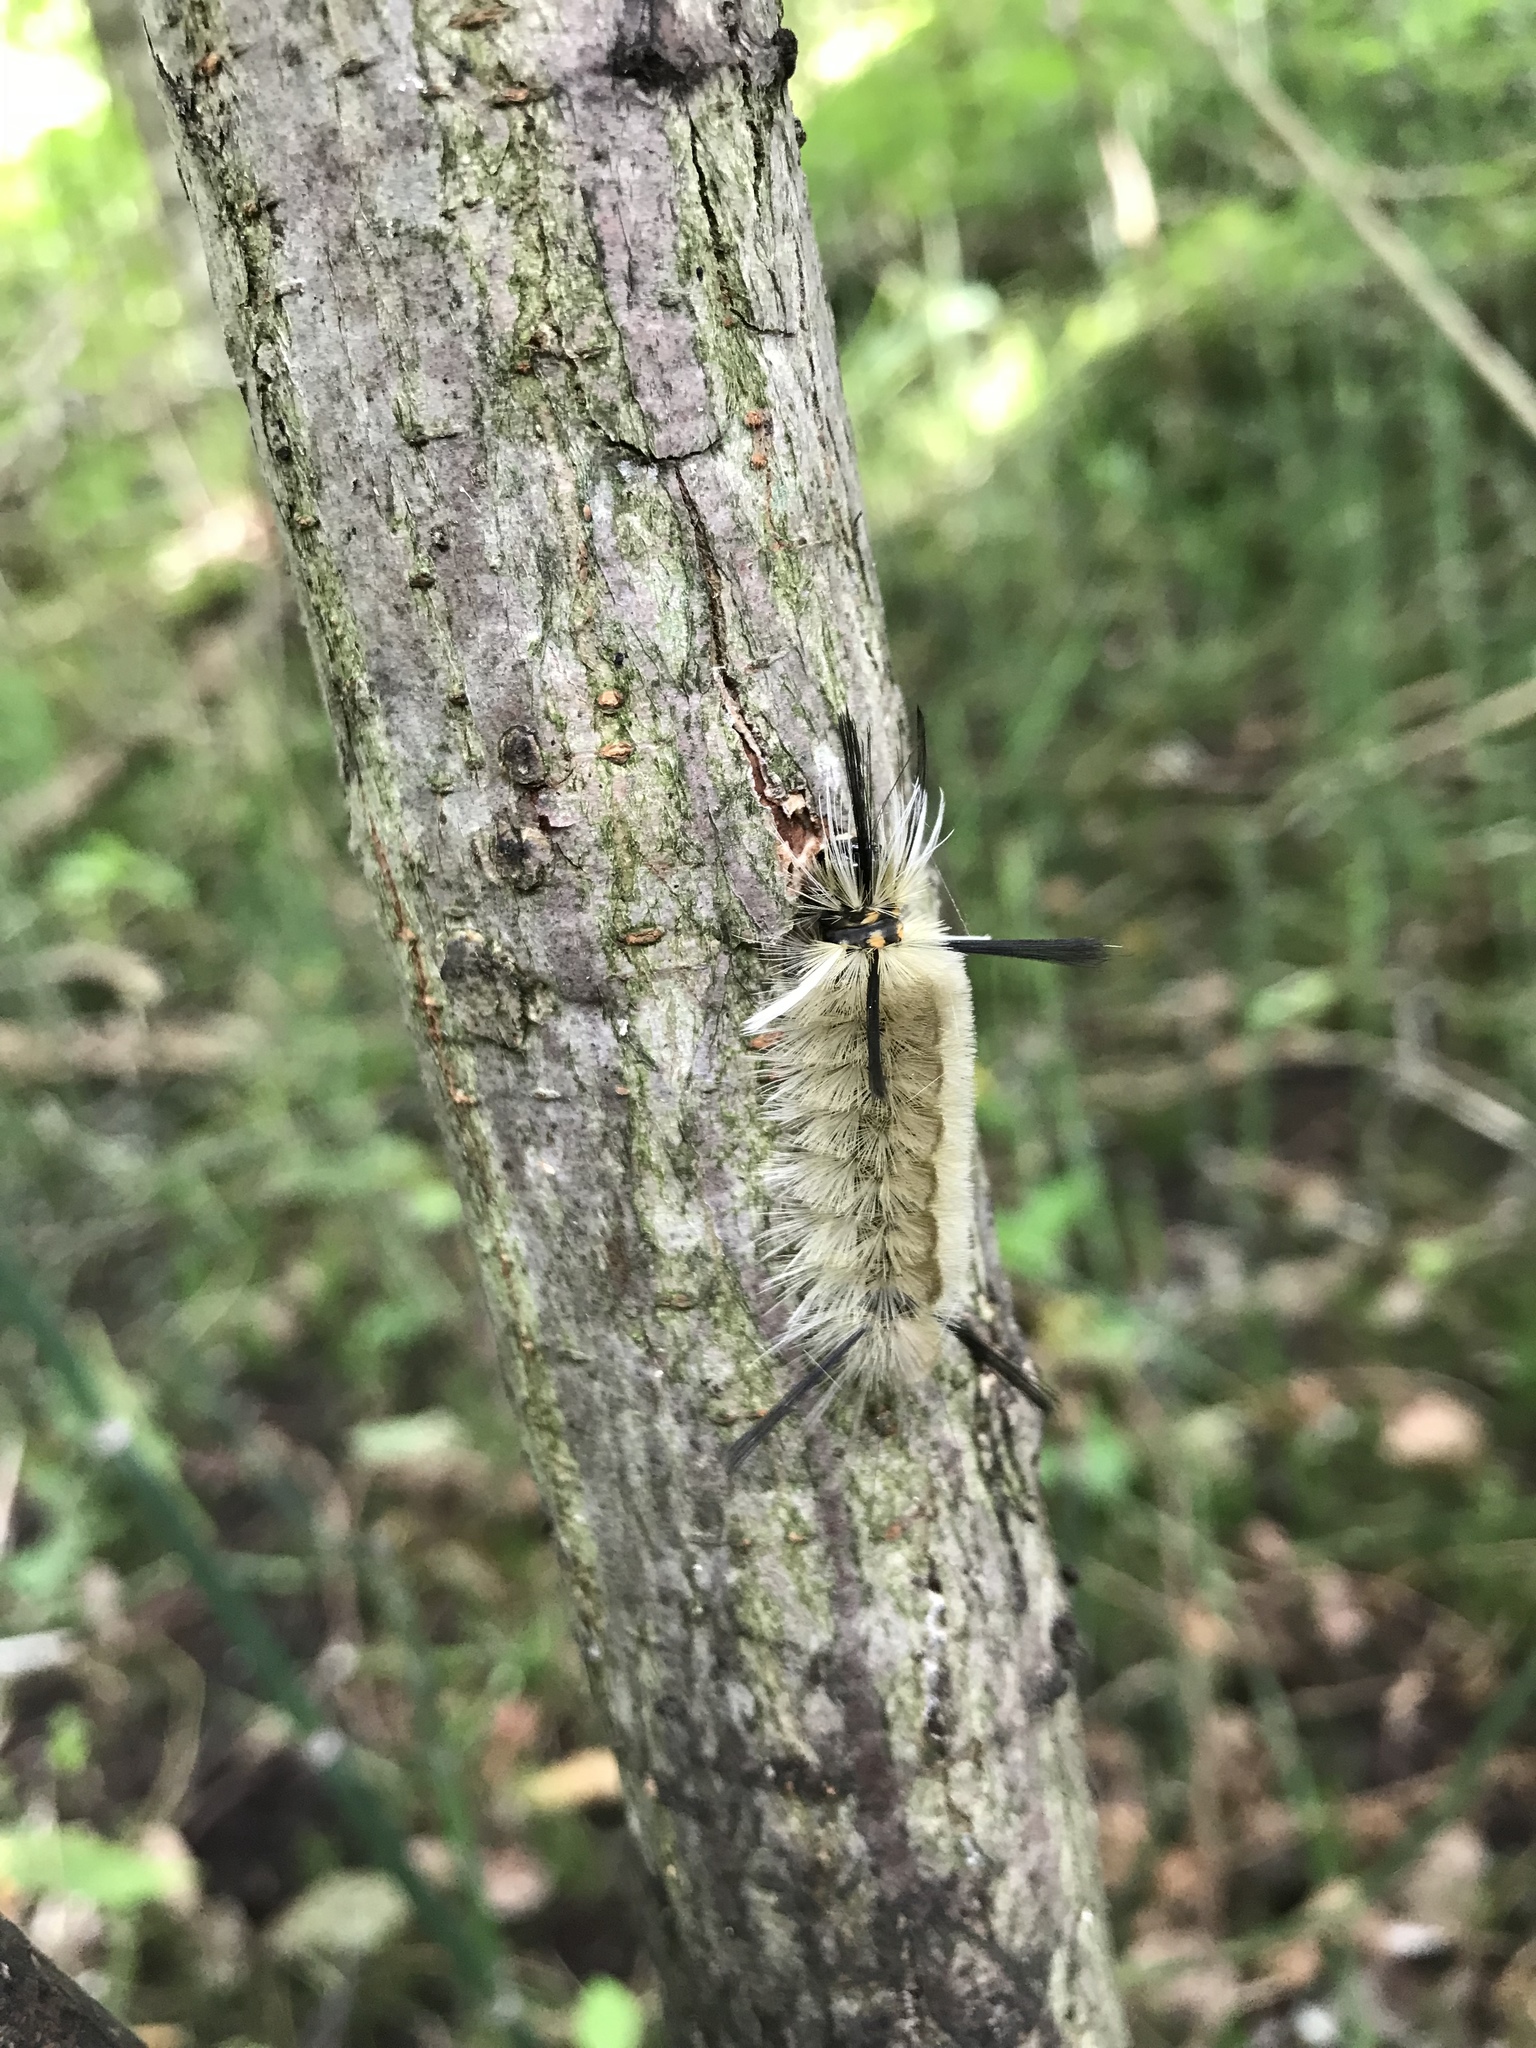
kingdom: Animalia
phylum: Arthropoda
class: Insecta
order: Lepidoptera
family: Erebidae
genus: Halysidota
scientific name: Halysidota tessellaris
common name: Banded tussock moth
